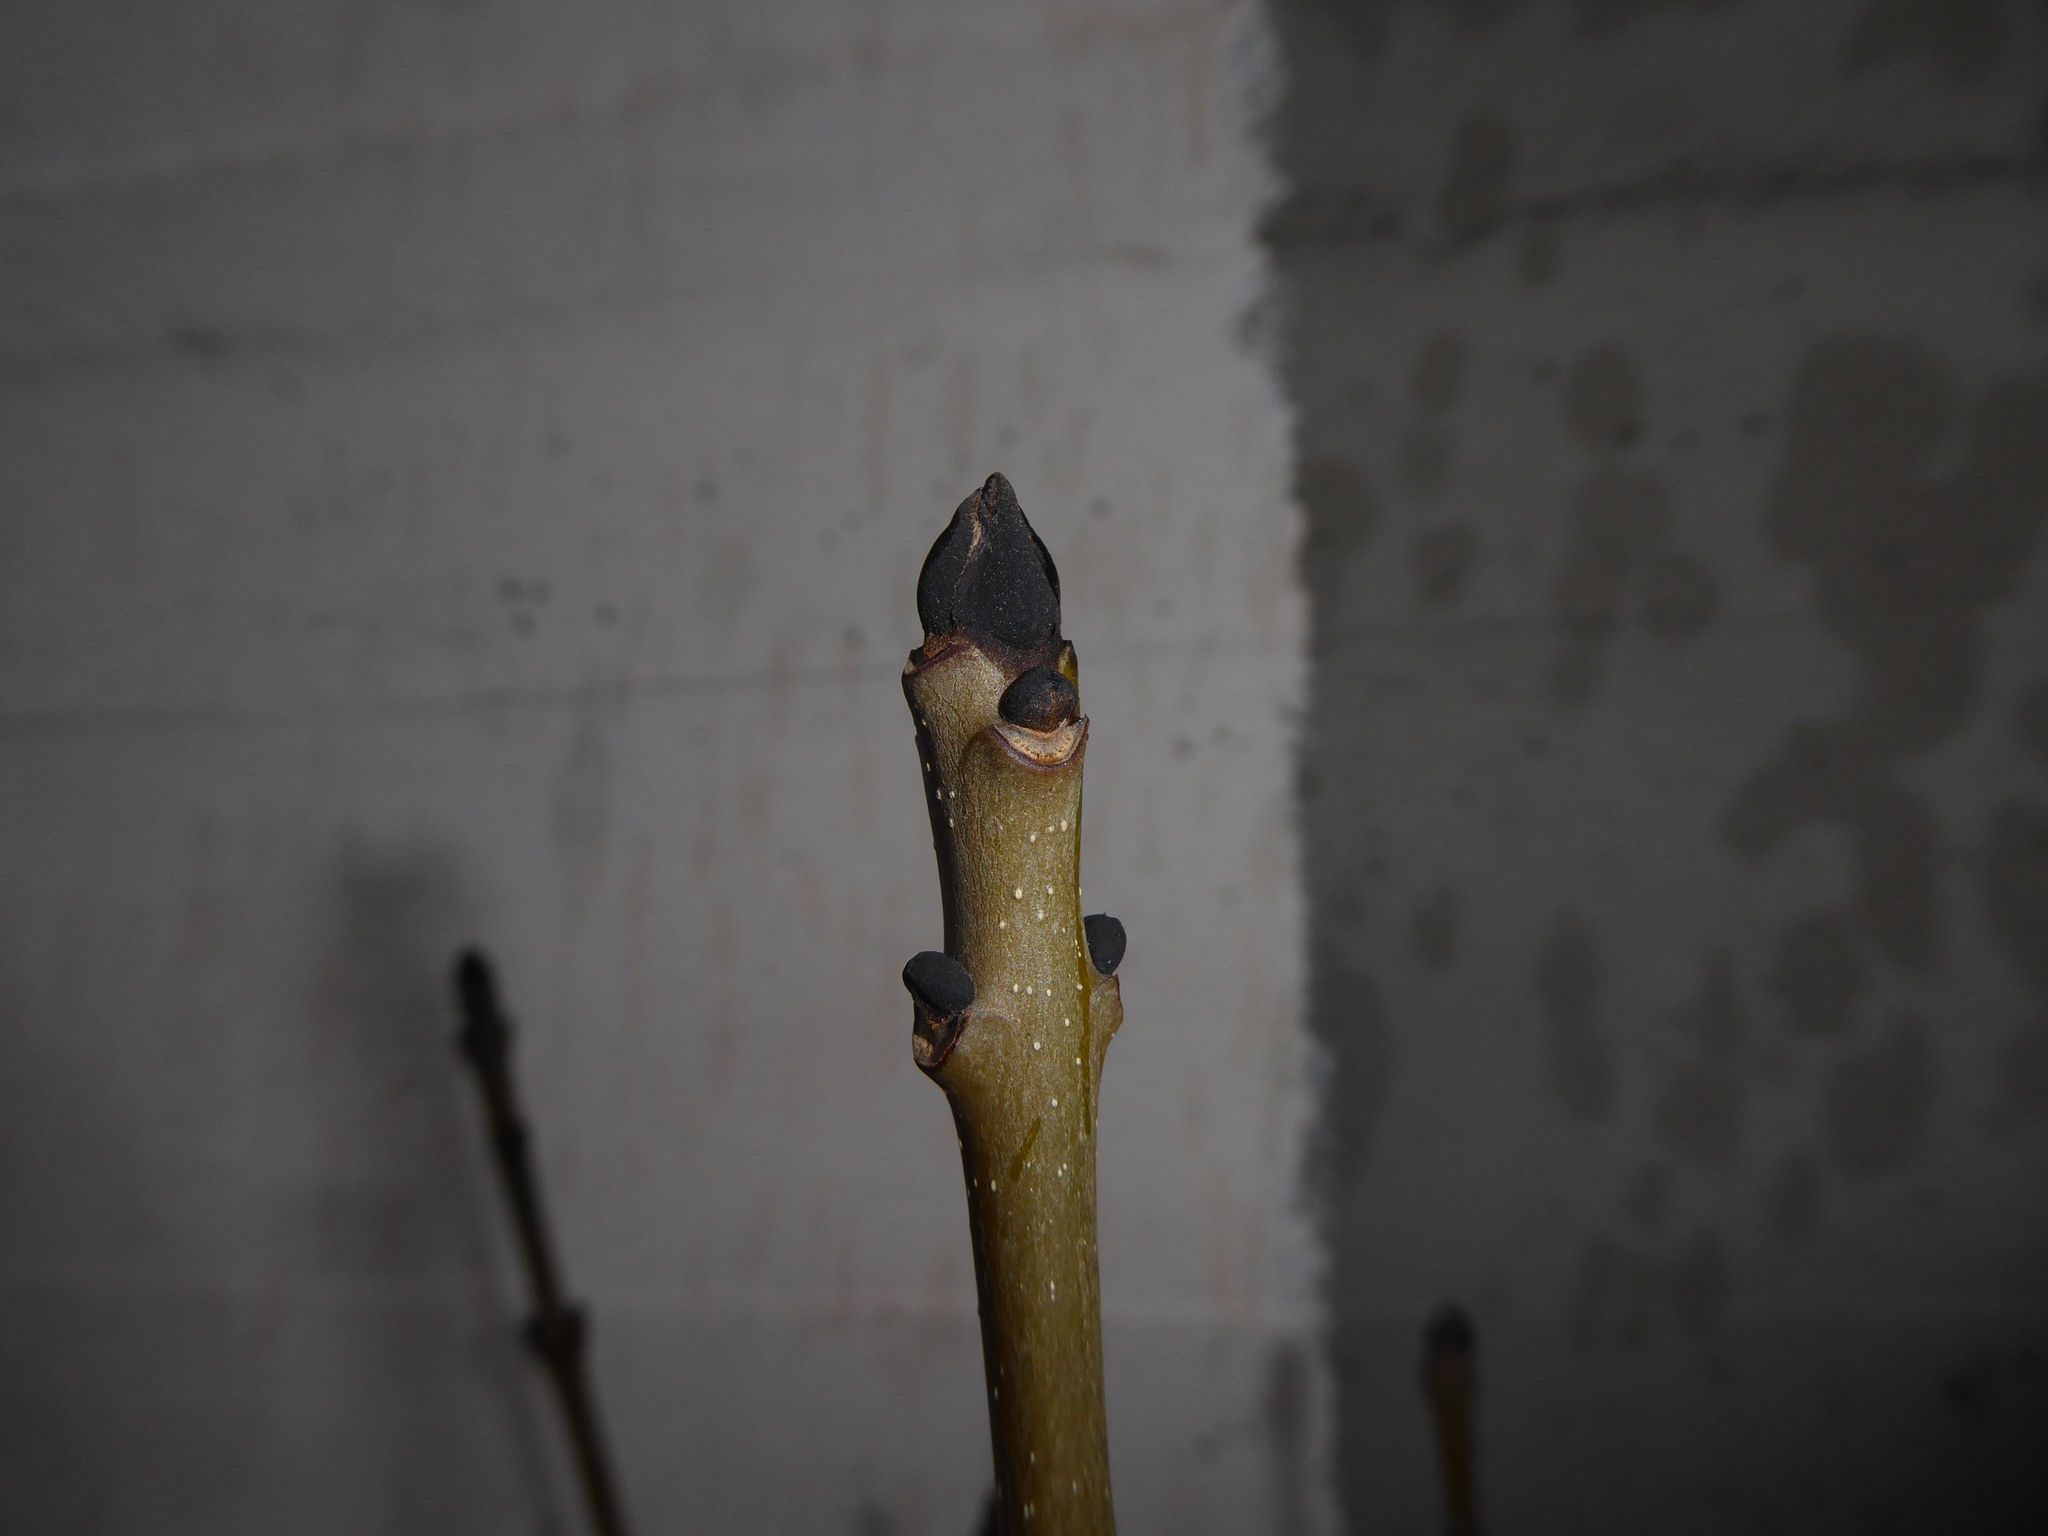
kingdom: Plantae
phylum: Tracheophyta
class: Magnoliopsida
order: Lamiales
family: Oleaceae
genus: Fraxinus
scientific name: Fraxinus excelsior
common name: European ash
